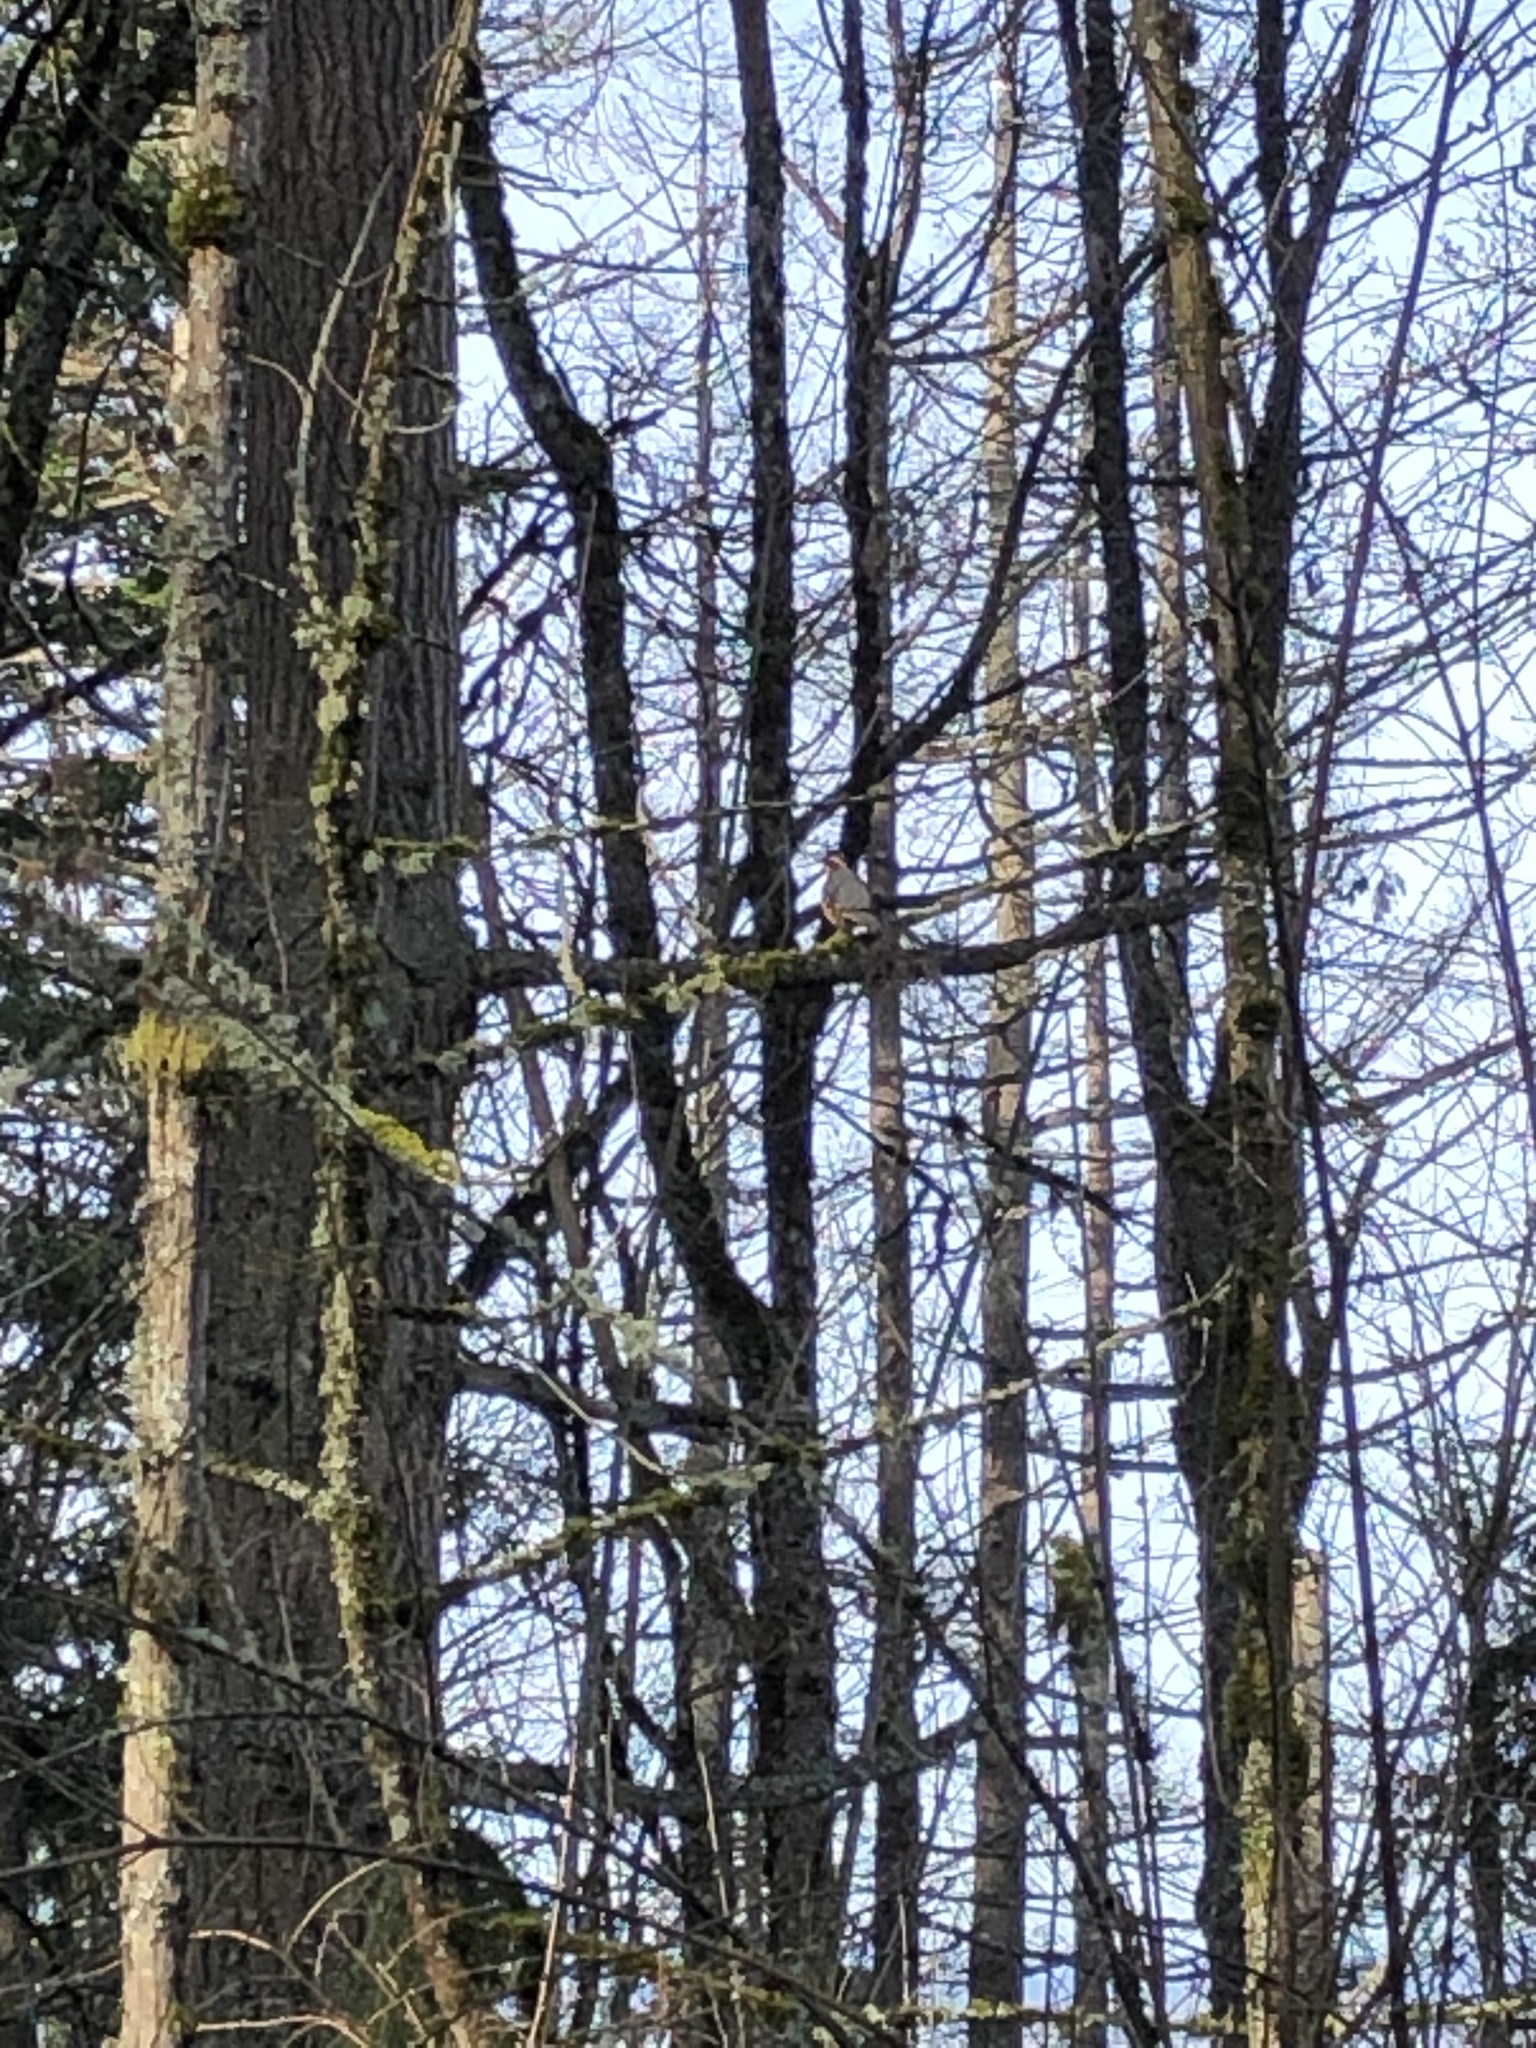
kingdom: Animalia
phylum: Chordata
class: Aves
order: Passeriformes
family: Turdidae
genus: Ixoreus
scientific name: Ixoreus naevius
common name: Varied thrush
